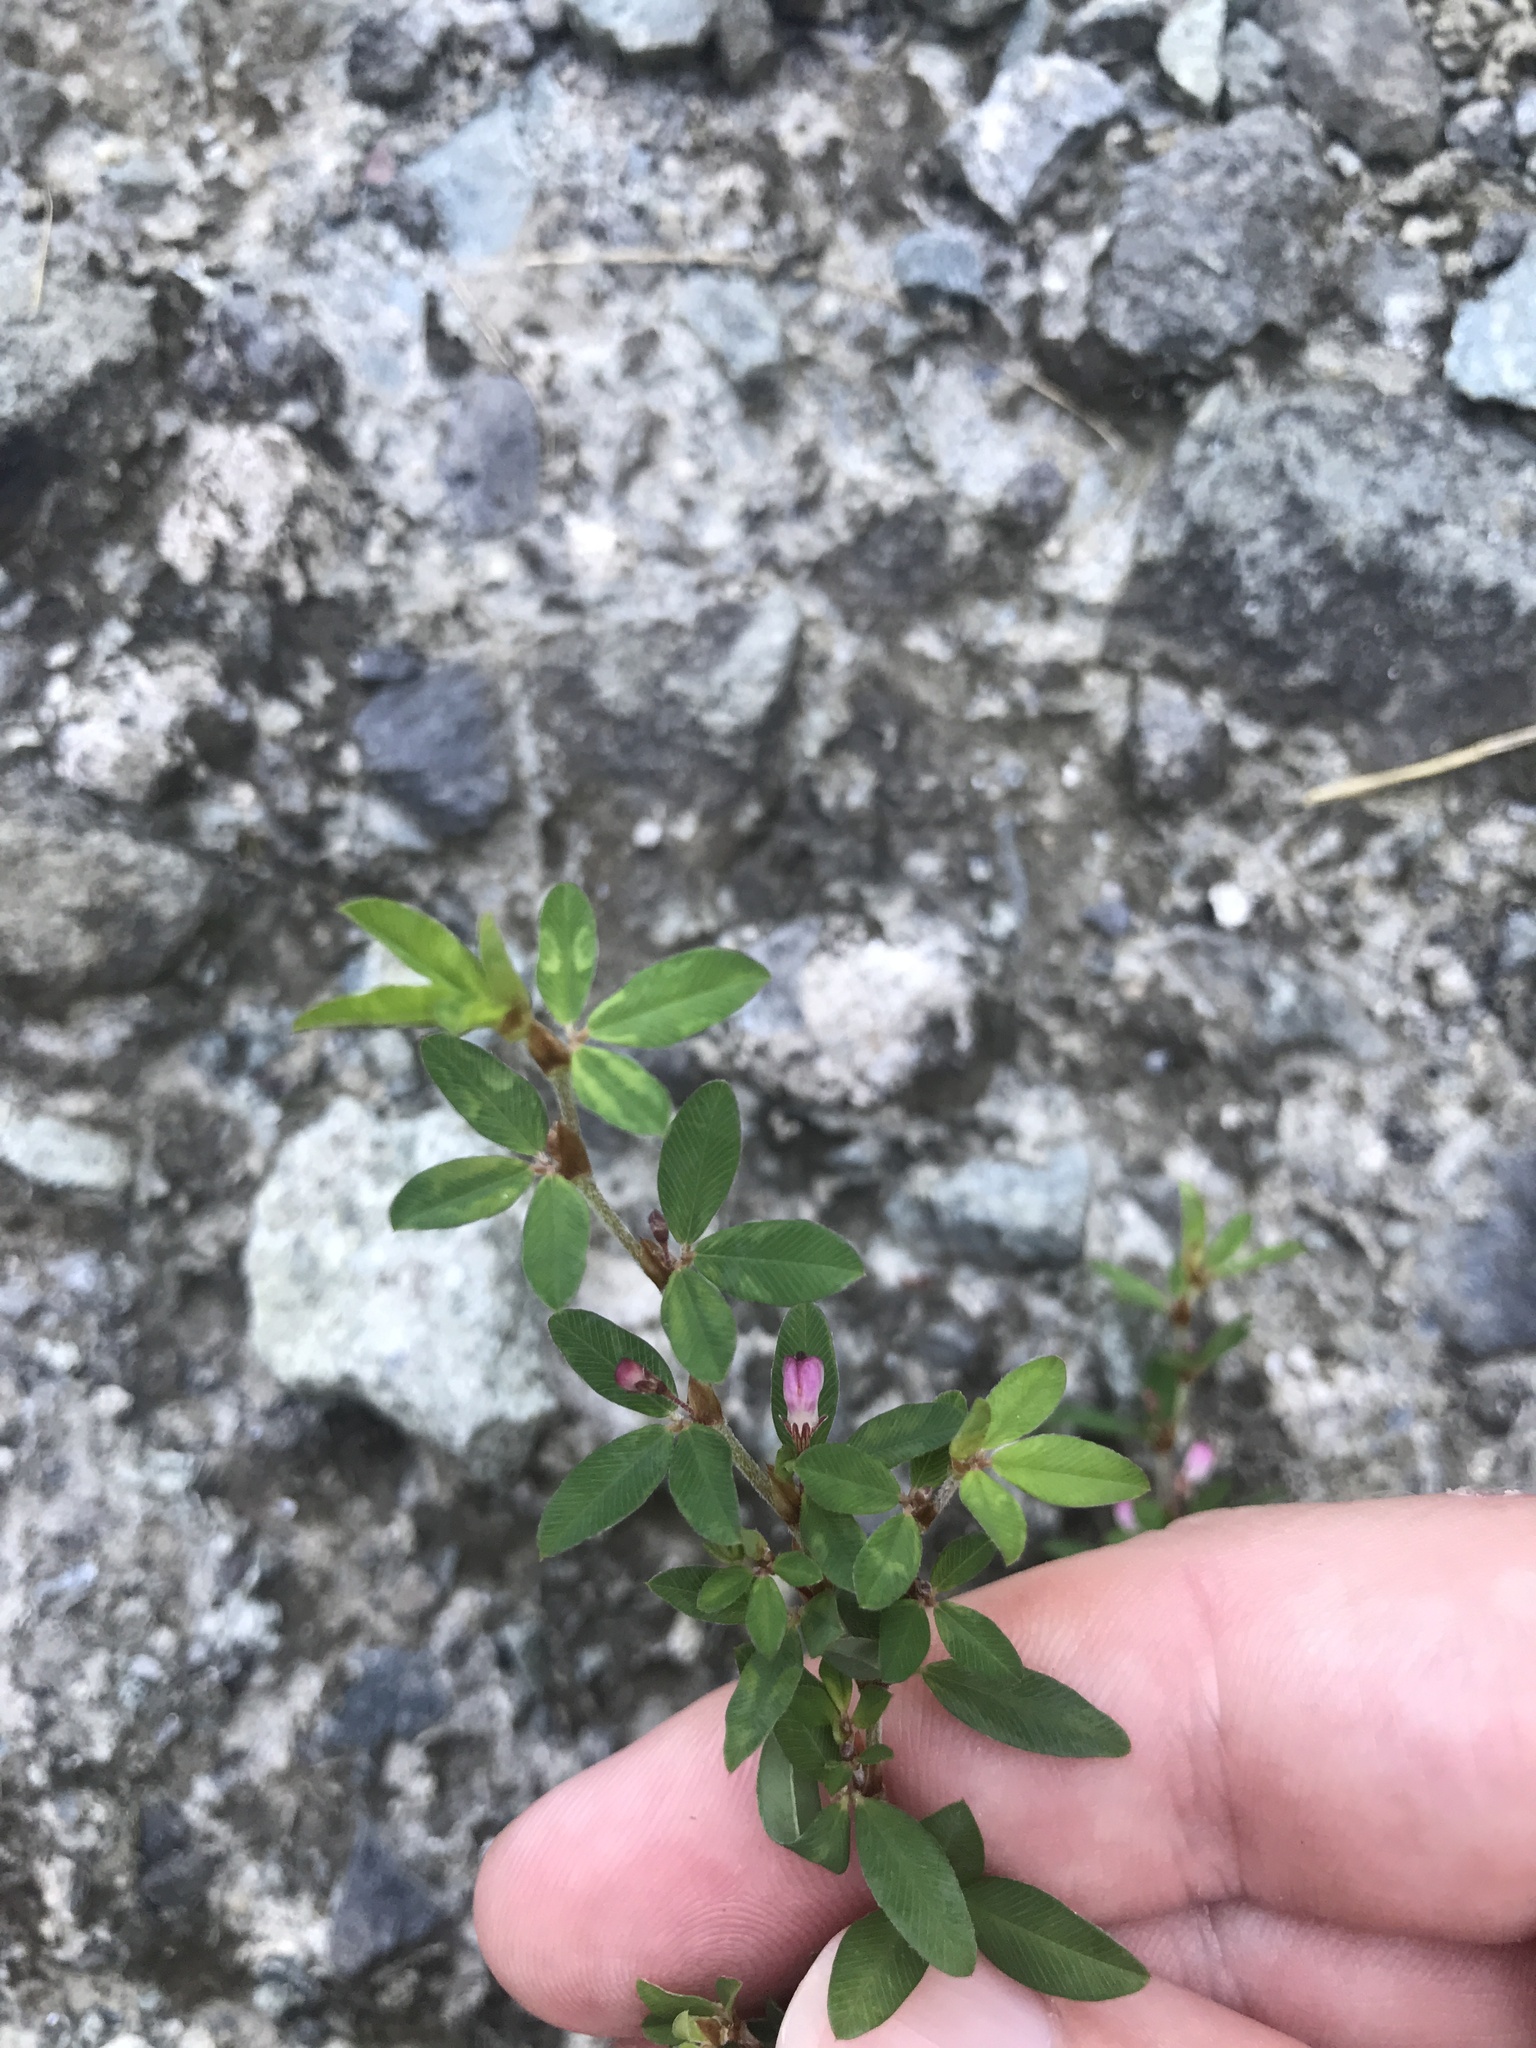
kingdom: Plantae
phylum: Tracheophyta
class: Magnoliopsida
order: Fabales
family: Fabaceae
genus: Kummerowia
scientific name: Kummerowia striata
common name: Japanese clover
